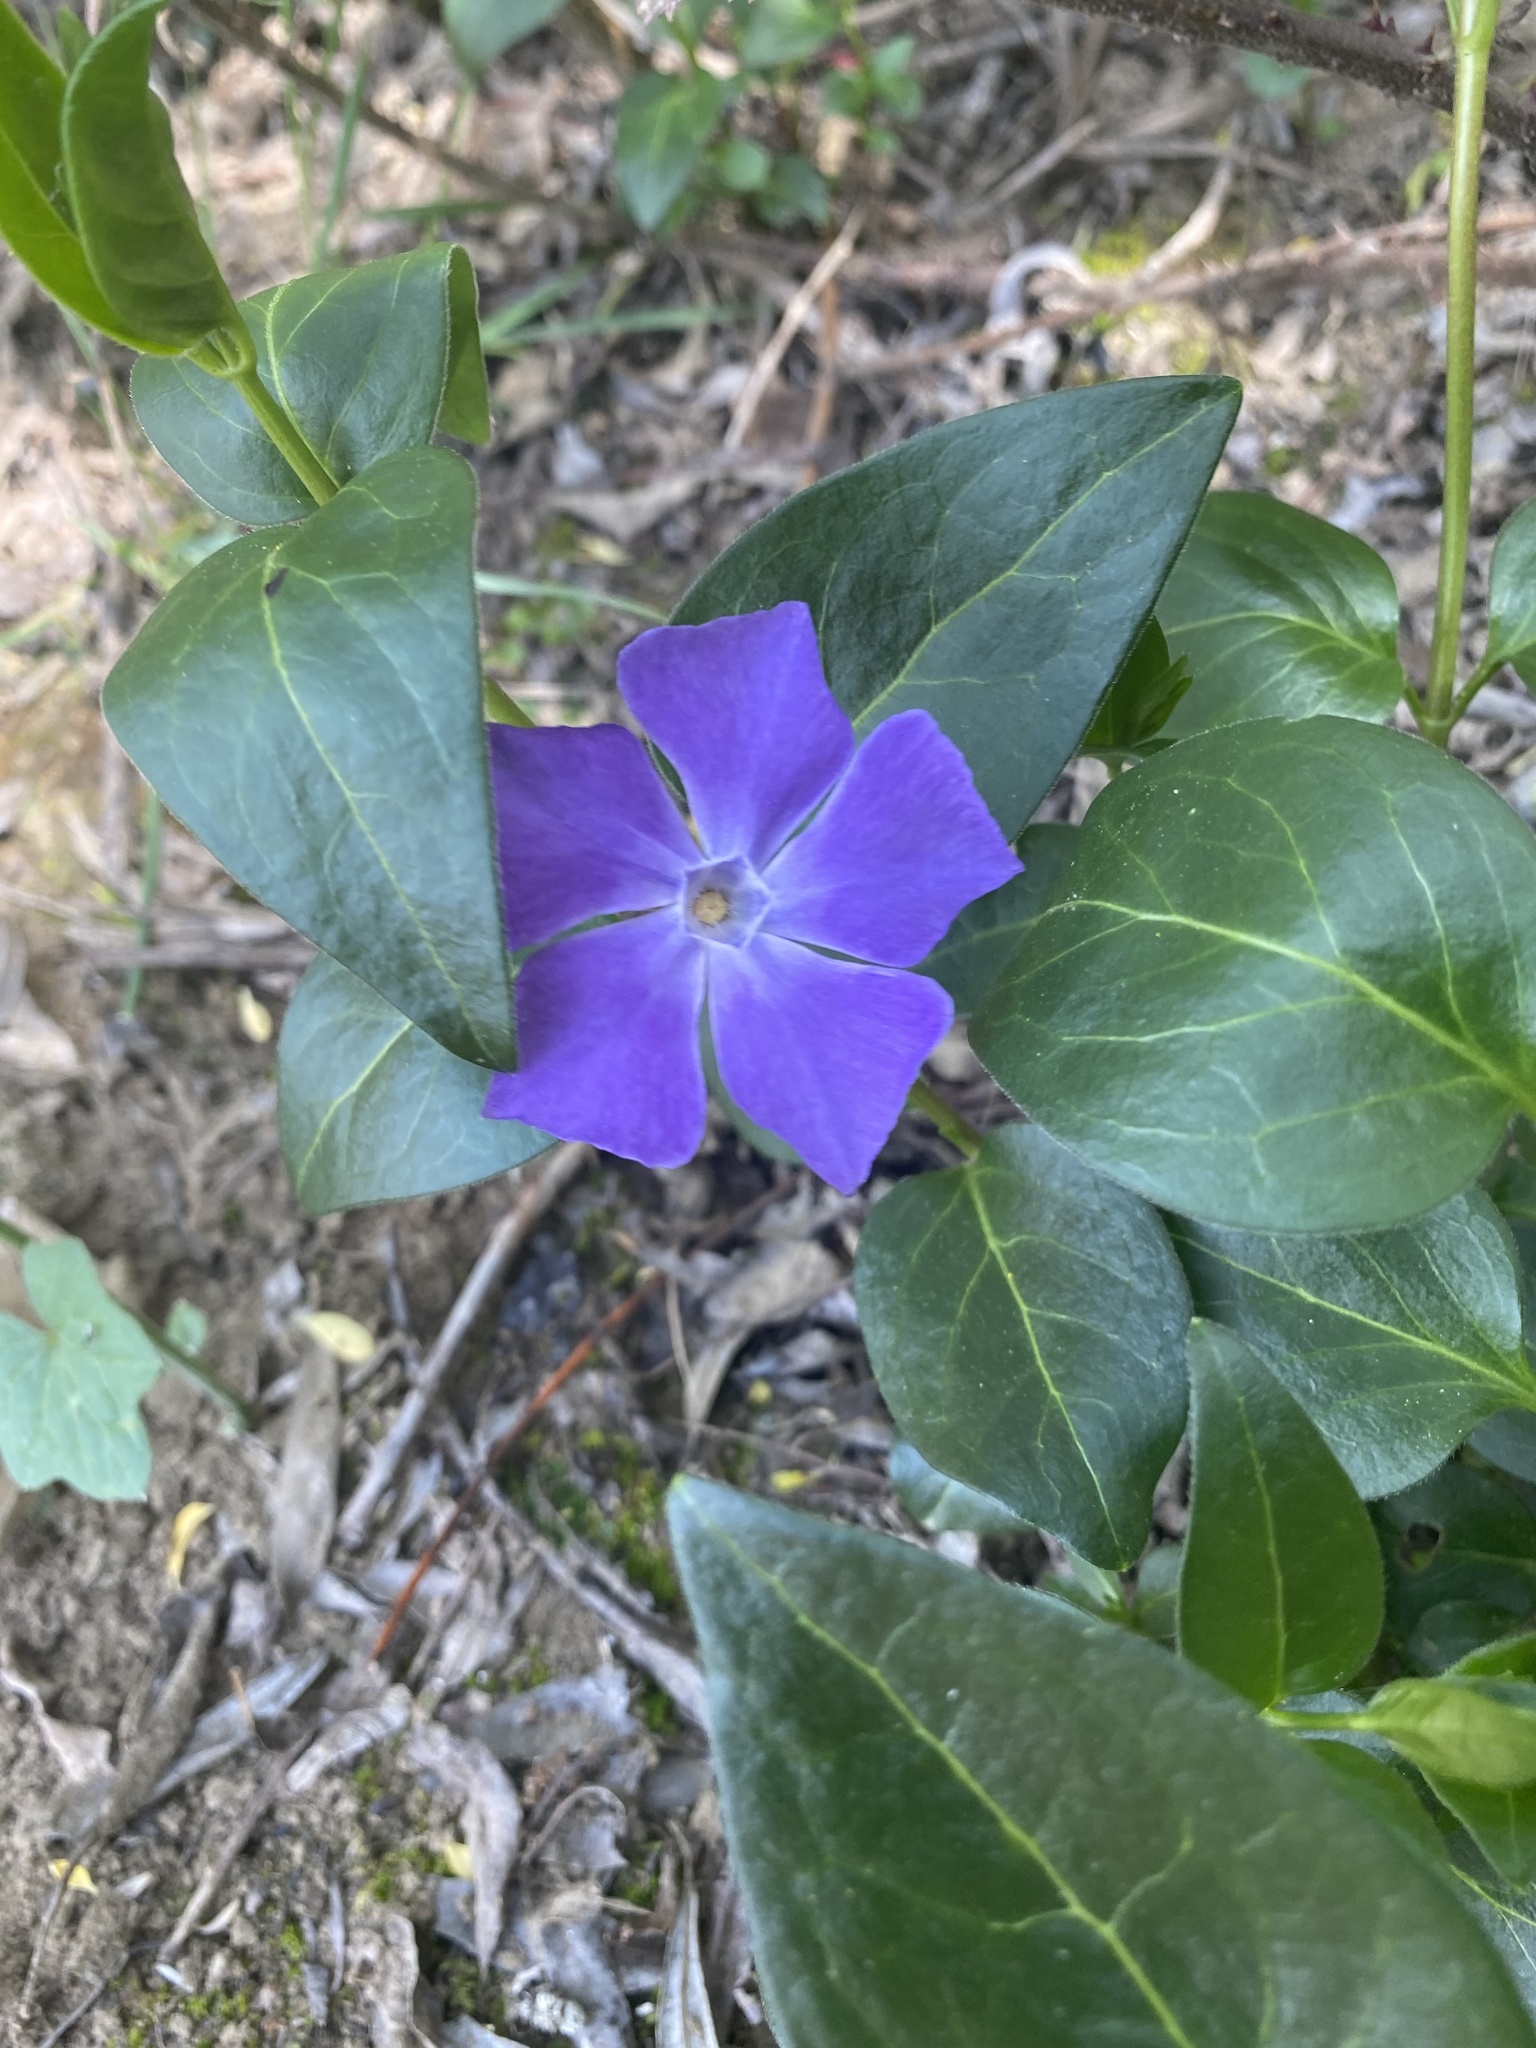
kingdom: Plantae
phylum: Tracheophyta
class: Magnoliopsida
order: Gentianales
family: Apocynaceae
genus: Vinca
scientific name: Vinca major
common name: Greater periwinkle
